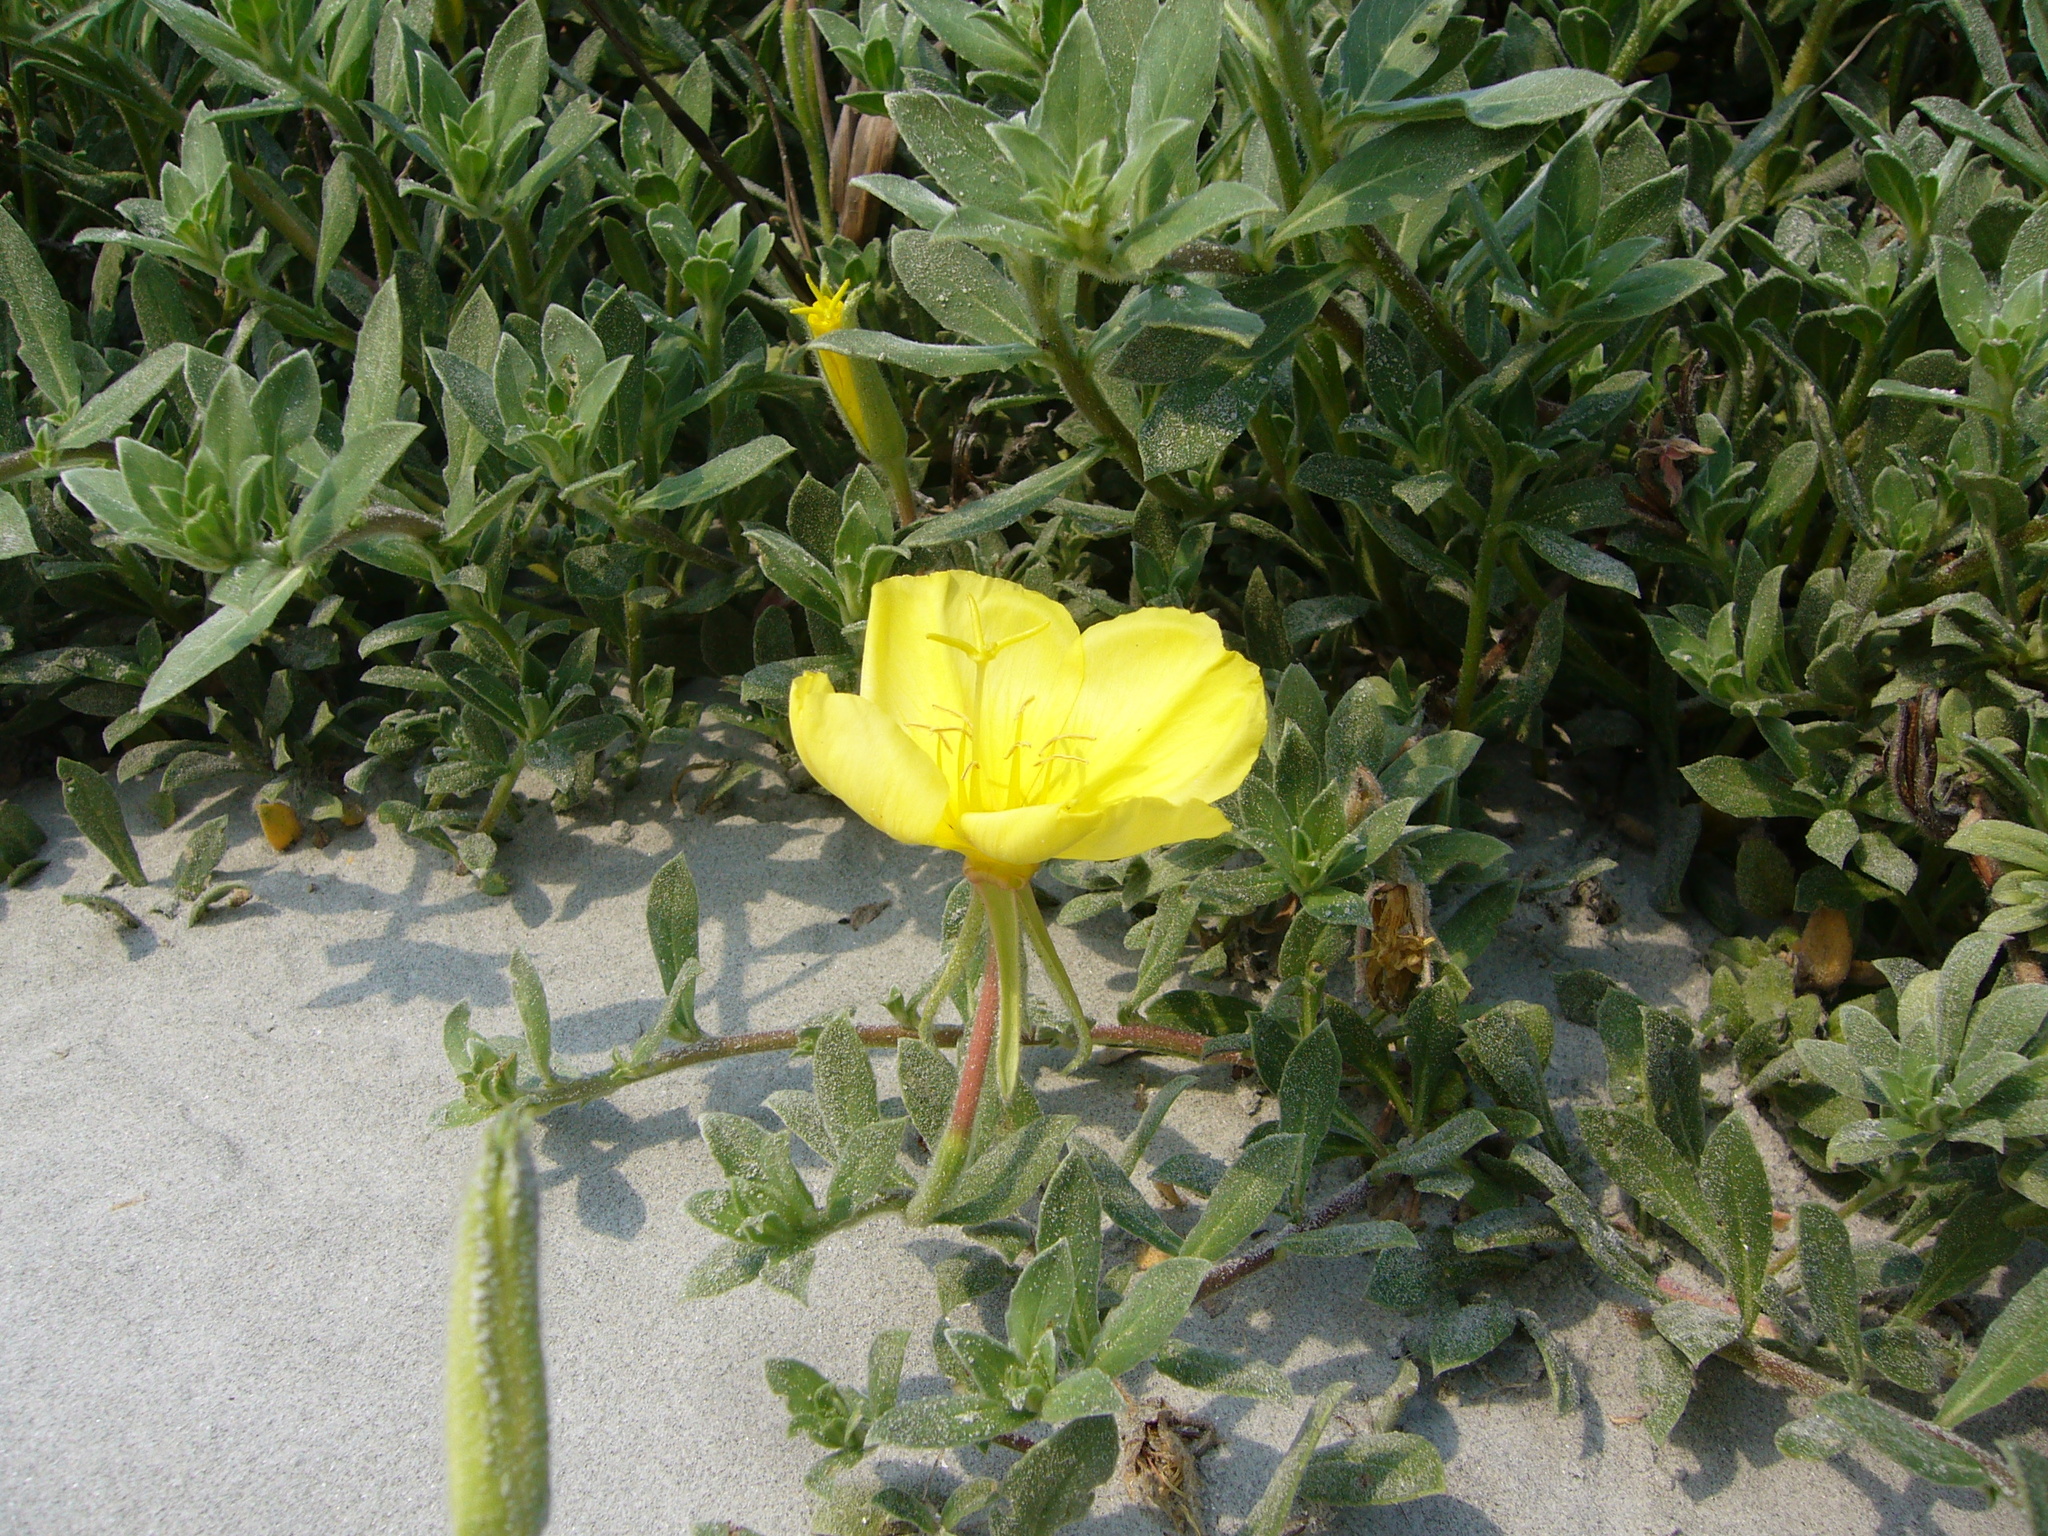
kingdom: Plantae
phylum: Tracheophyta
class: Magnoliopsida
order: Myrtales
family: Onagraceae
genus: Oenothera
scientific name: Oenothera drummondii
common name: Beach evening-primrose
